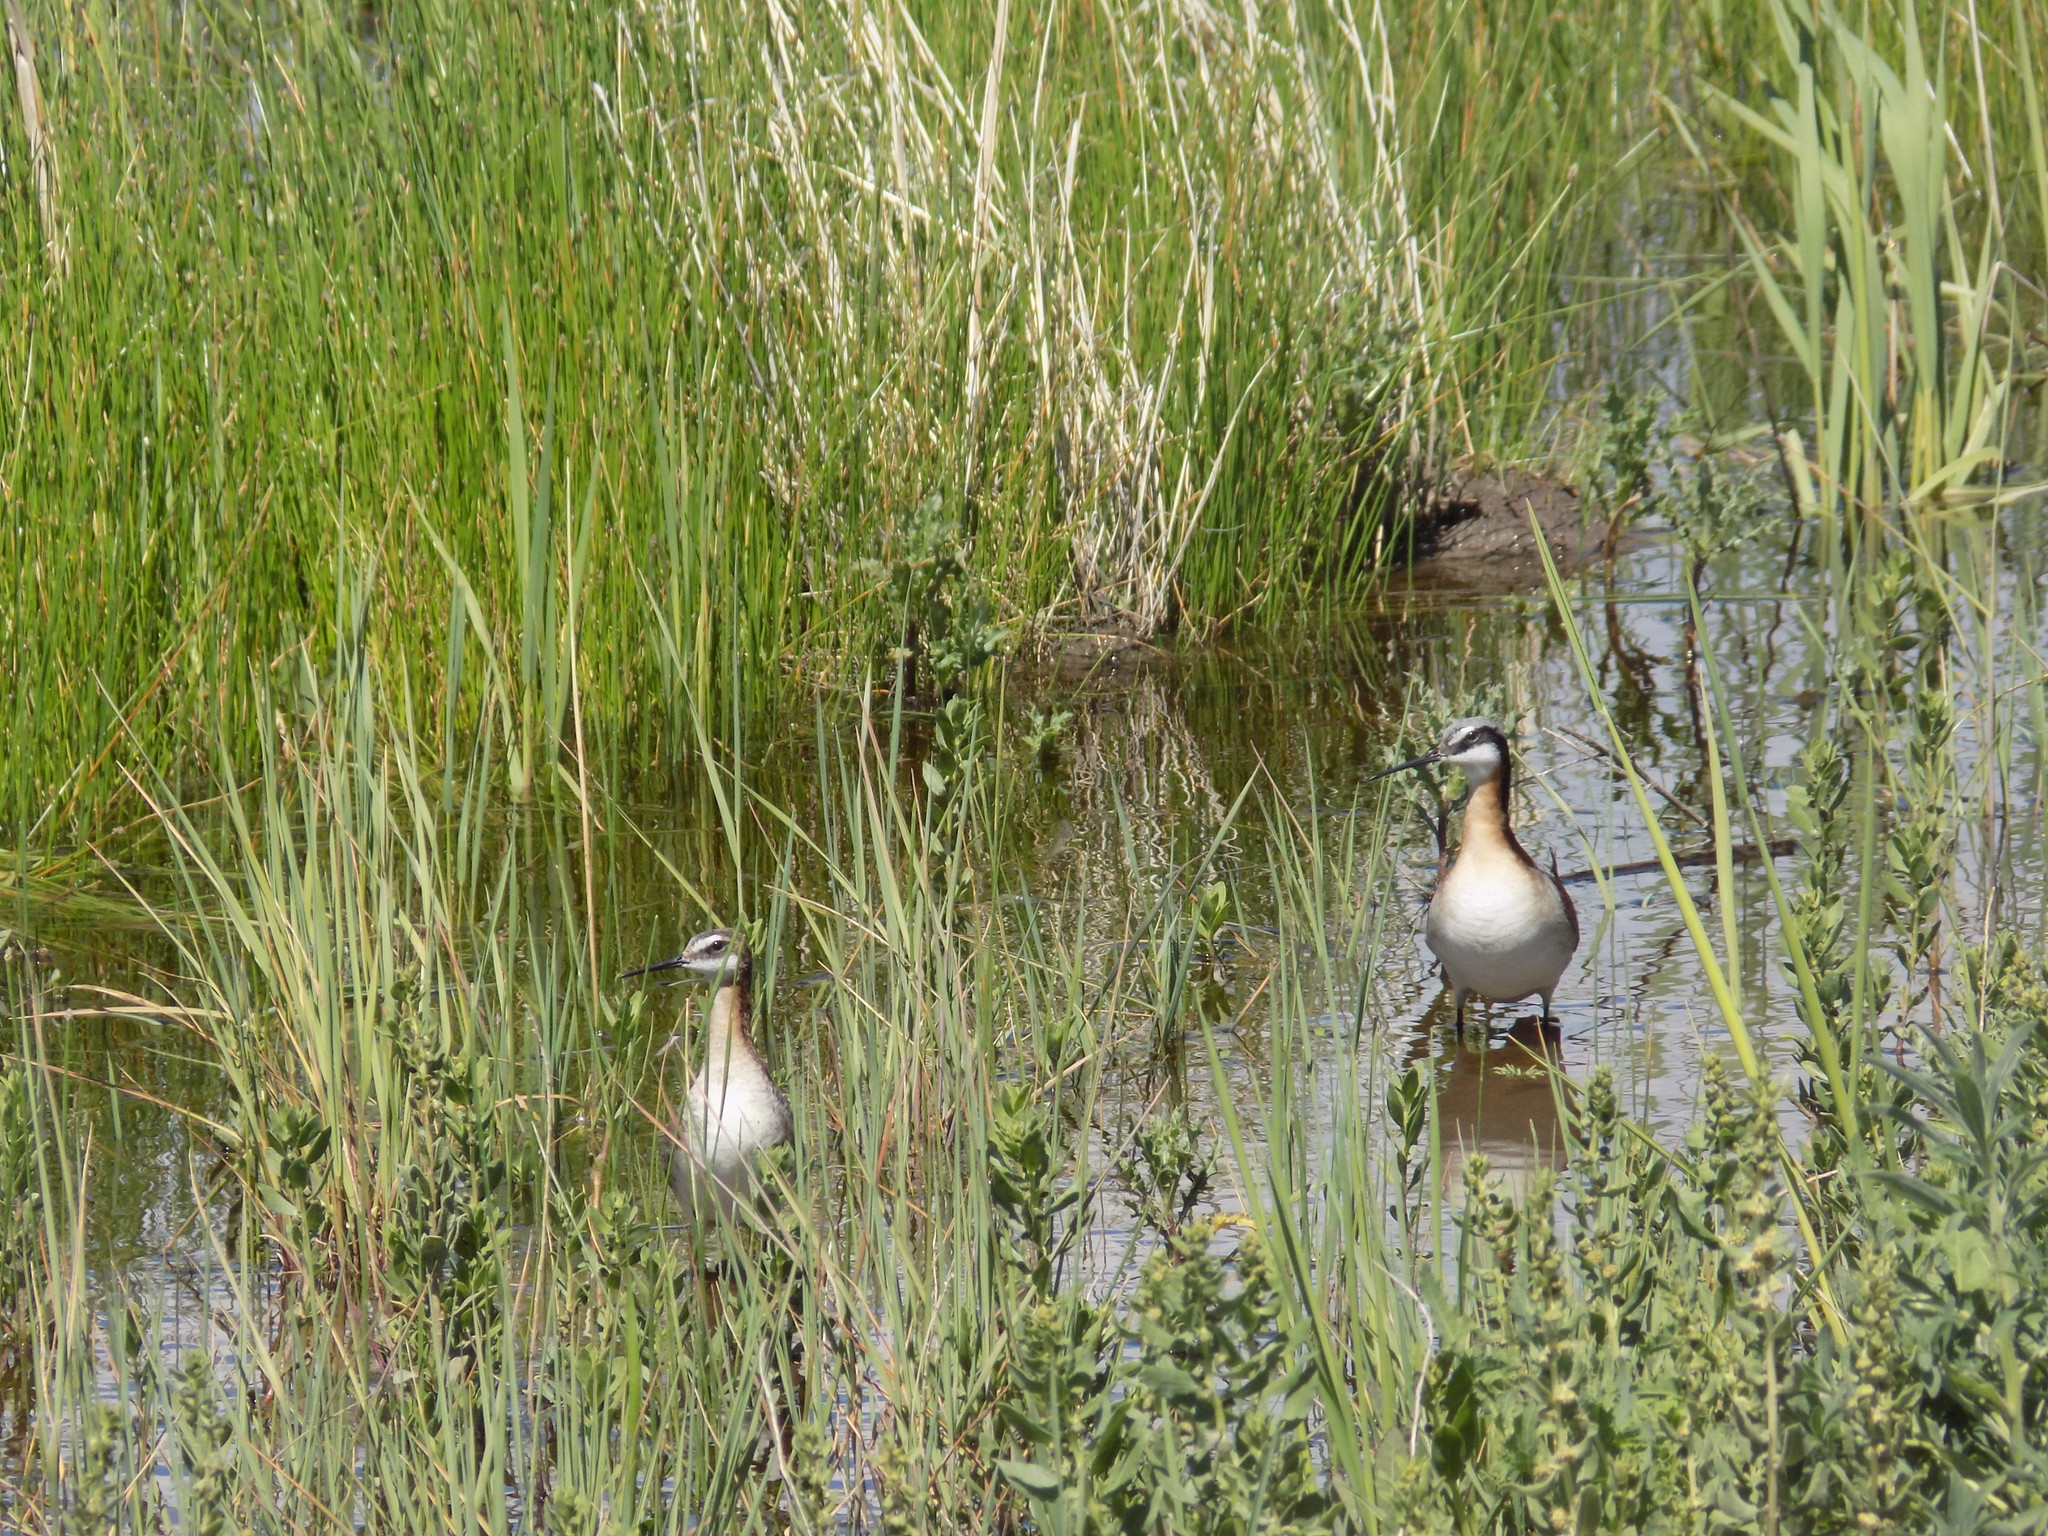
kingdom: Animalia
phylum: Chordata
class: Aves
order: Charadriiformes
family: Scolopacidae
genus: Phalaropus
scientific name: Phalaropus tricolor
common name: Wilson's phalarope
